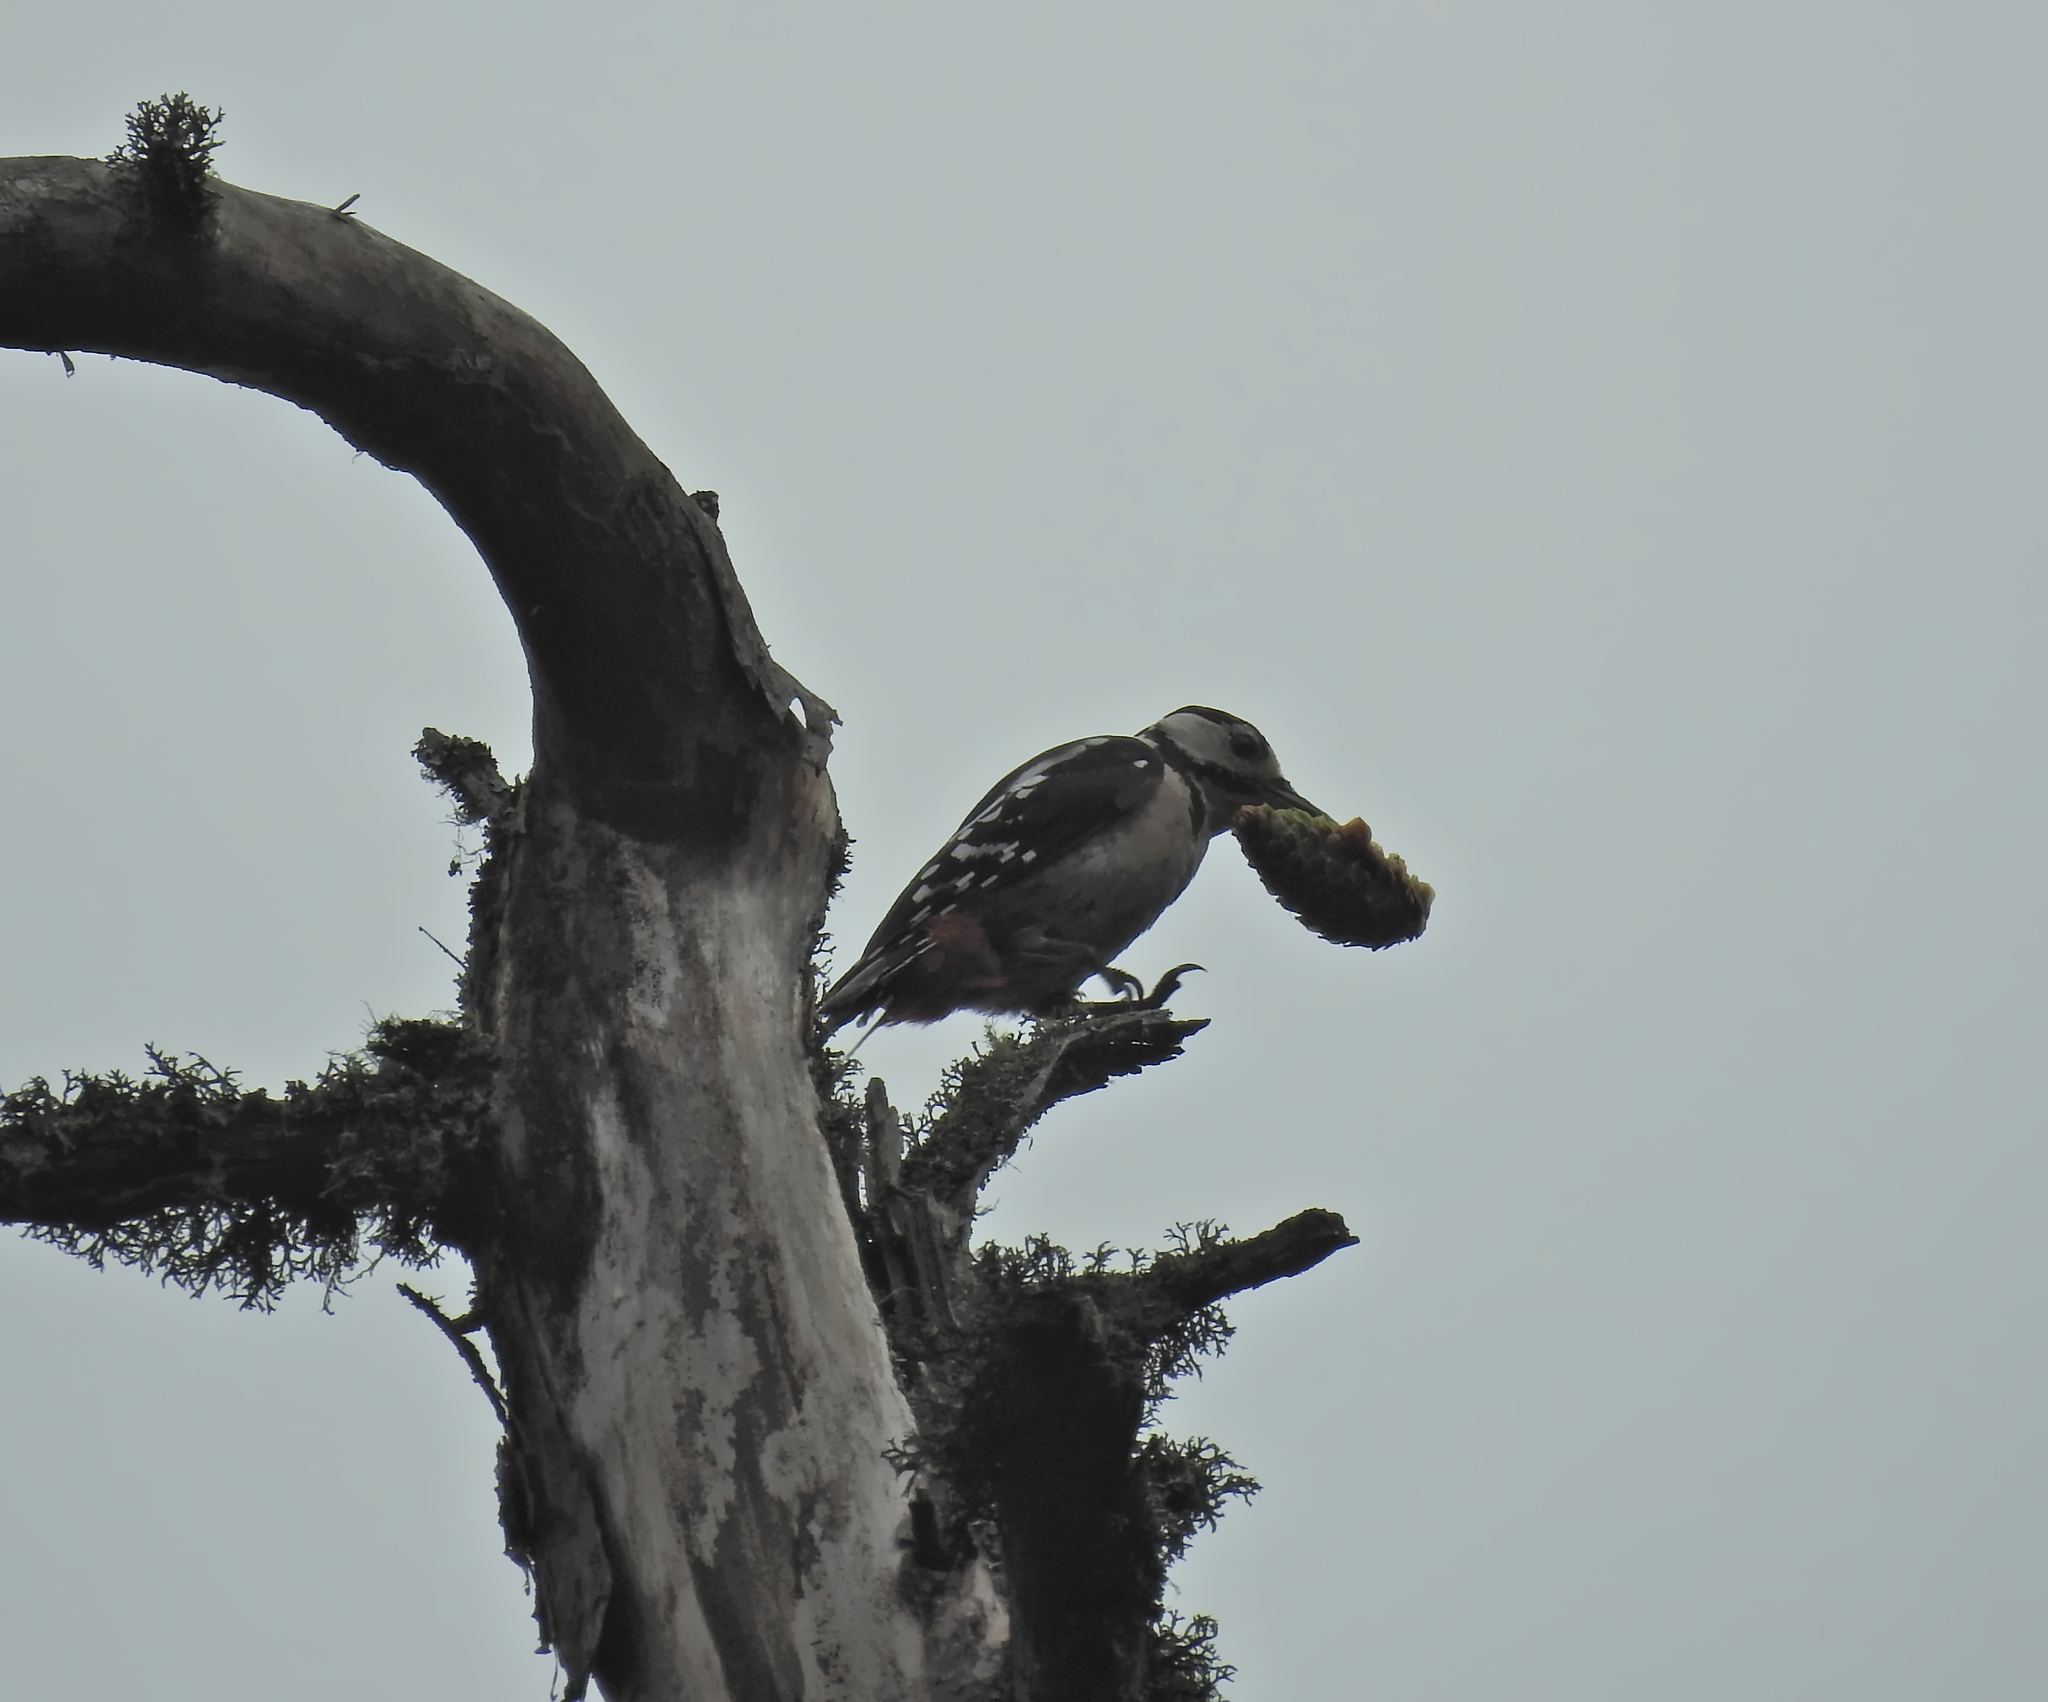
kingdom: Animalia
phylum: Chordata
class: Aves
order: Piciformes
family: Picidae
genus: Dendrocopos
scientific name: Dendrocopos major
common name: Great spotted woodpecker
